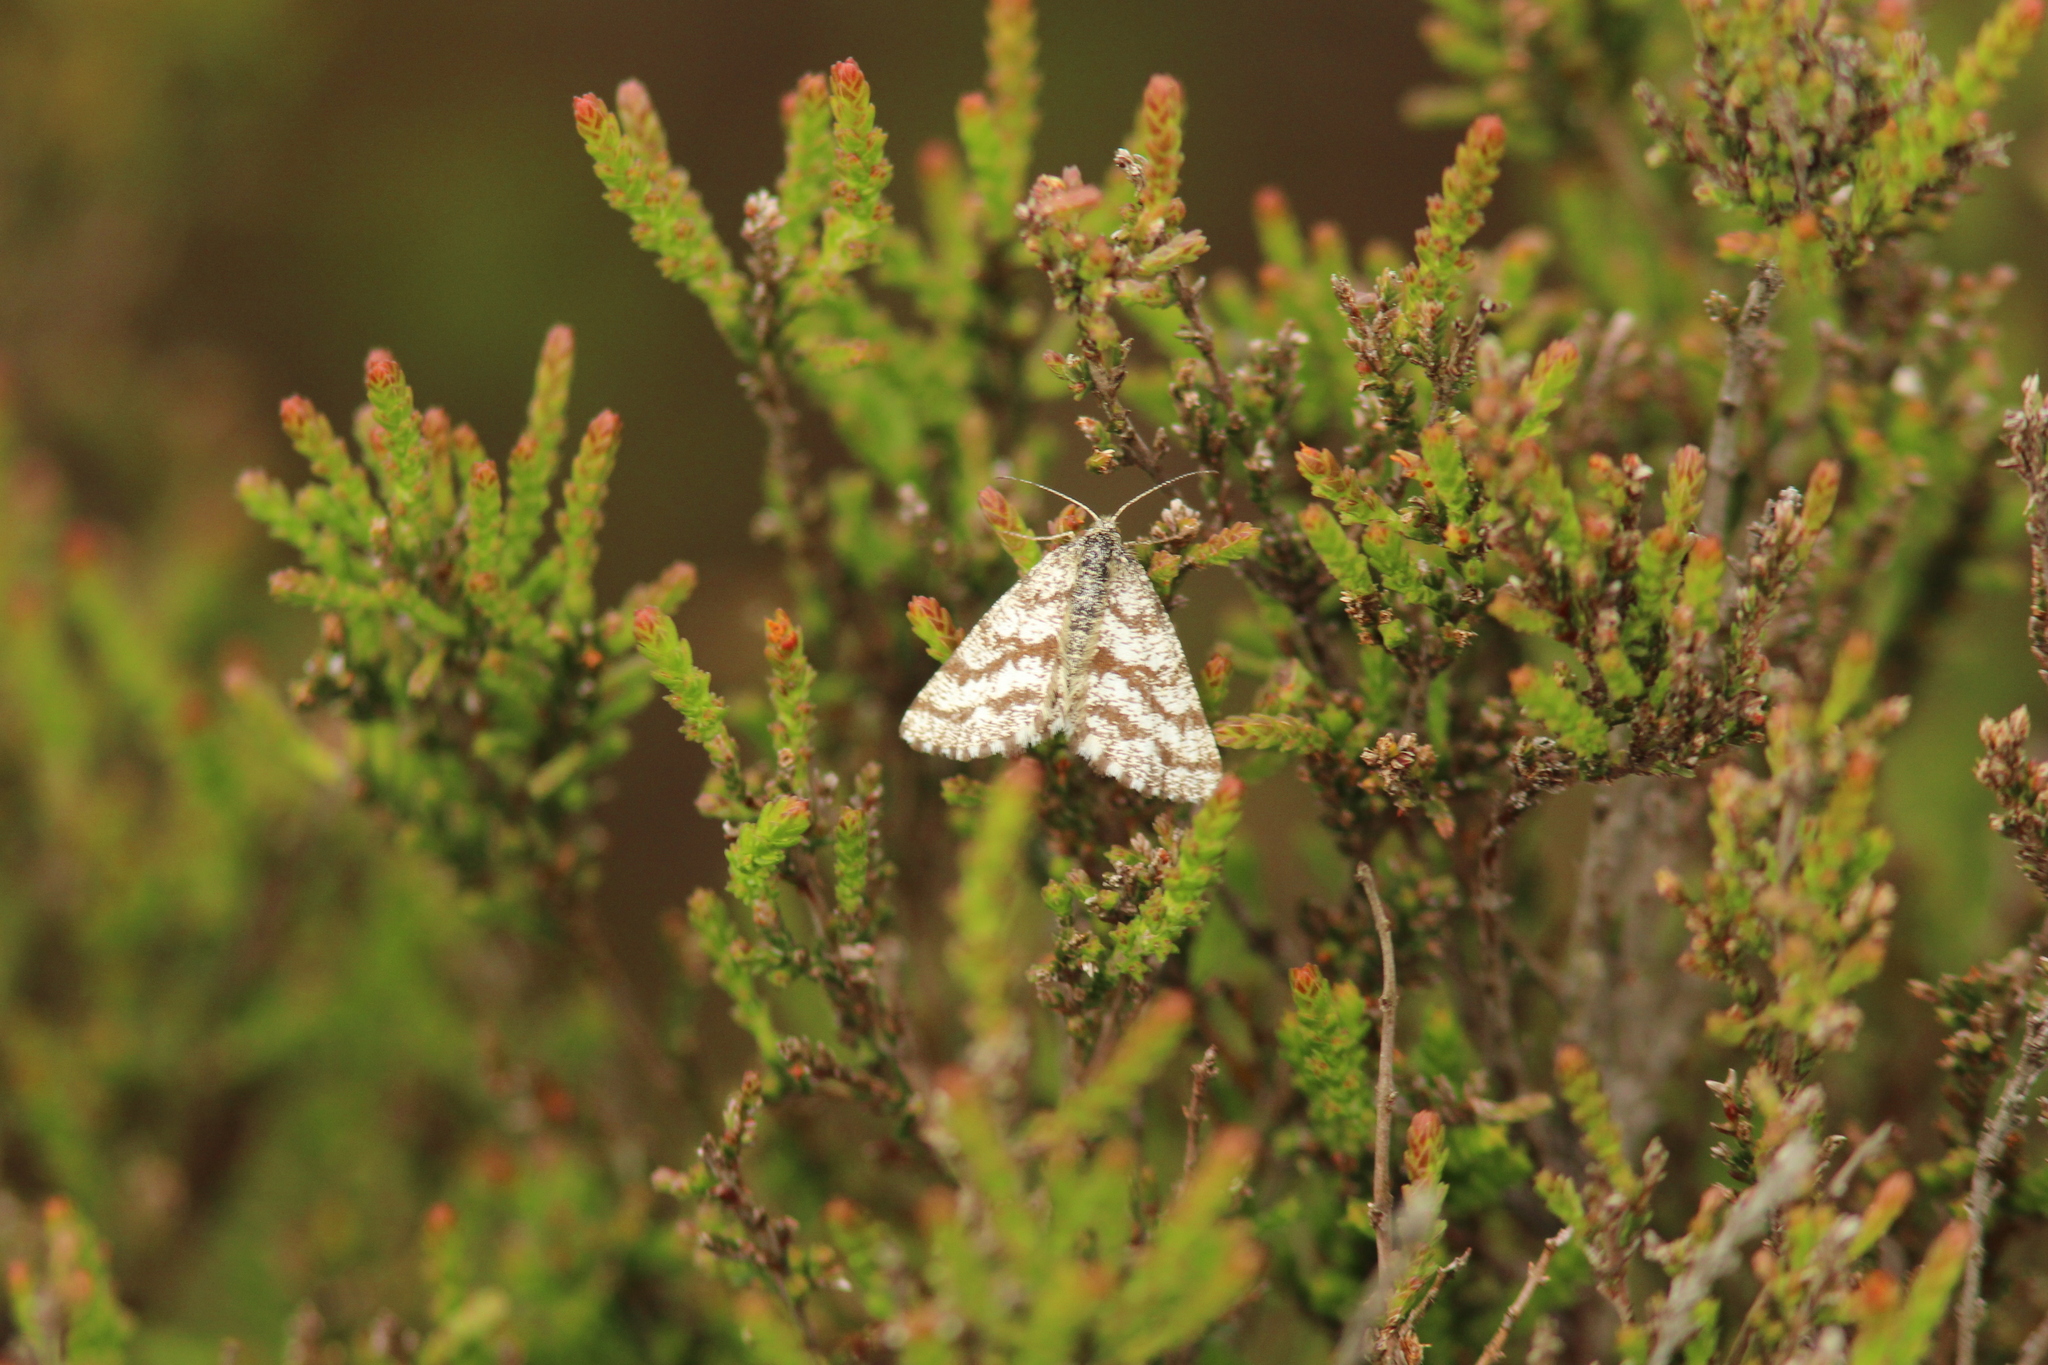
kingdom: Animalia
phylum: Arthropoda
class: Insecta
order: Lepidoptera
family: Geometridae
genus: Ematurga
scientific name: Ematurga atomaria
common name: Common heath
